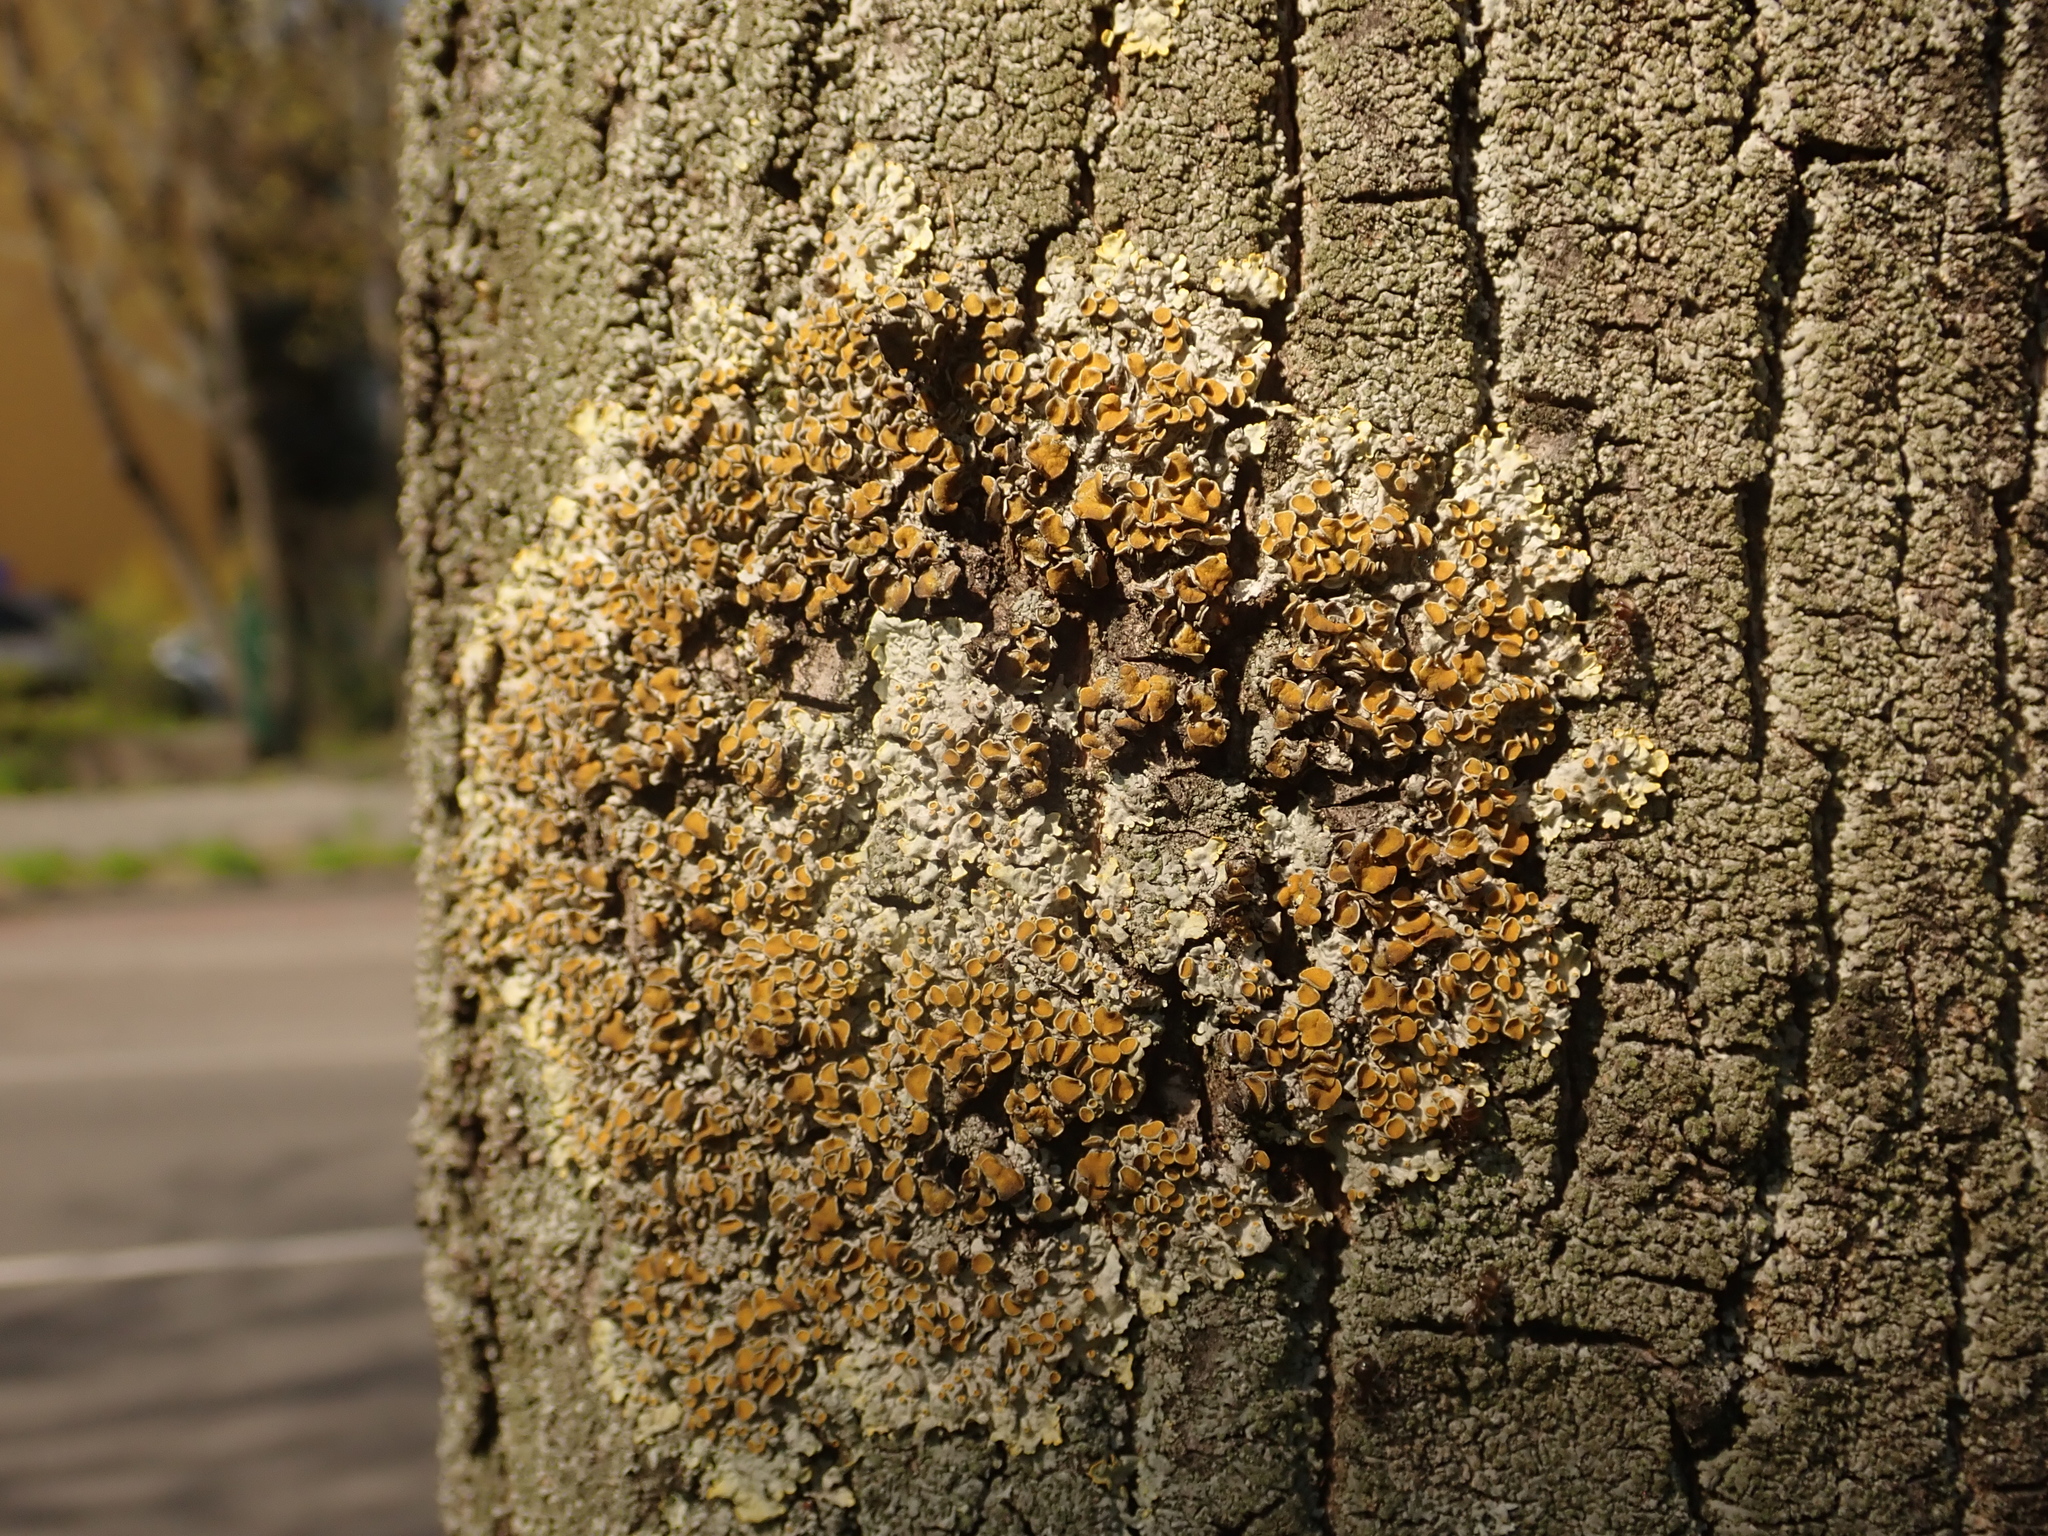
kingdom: Fungi
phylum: Ascomycota
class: Lecanoromycetes
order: Teloschistales
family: Teloschistaceae
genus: Xanthoria
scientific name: Xanthoria parietina
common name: Common orange lichen
